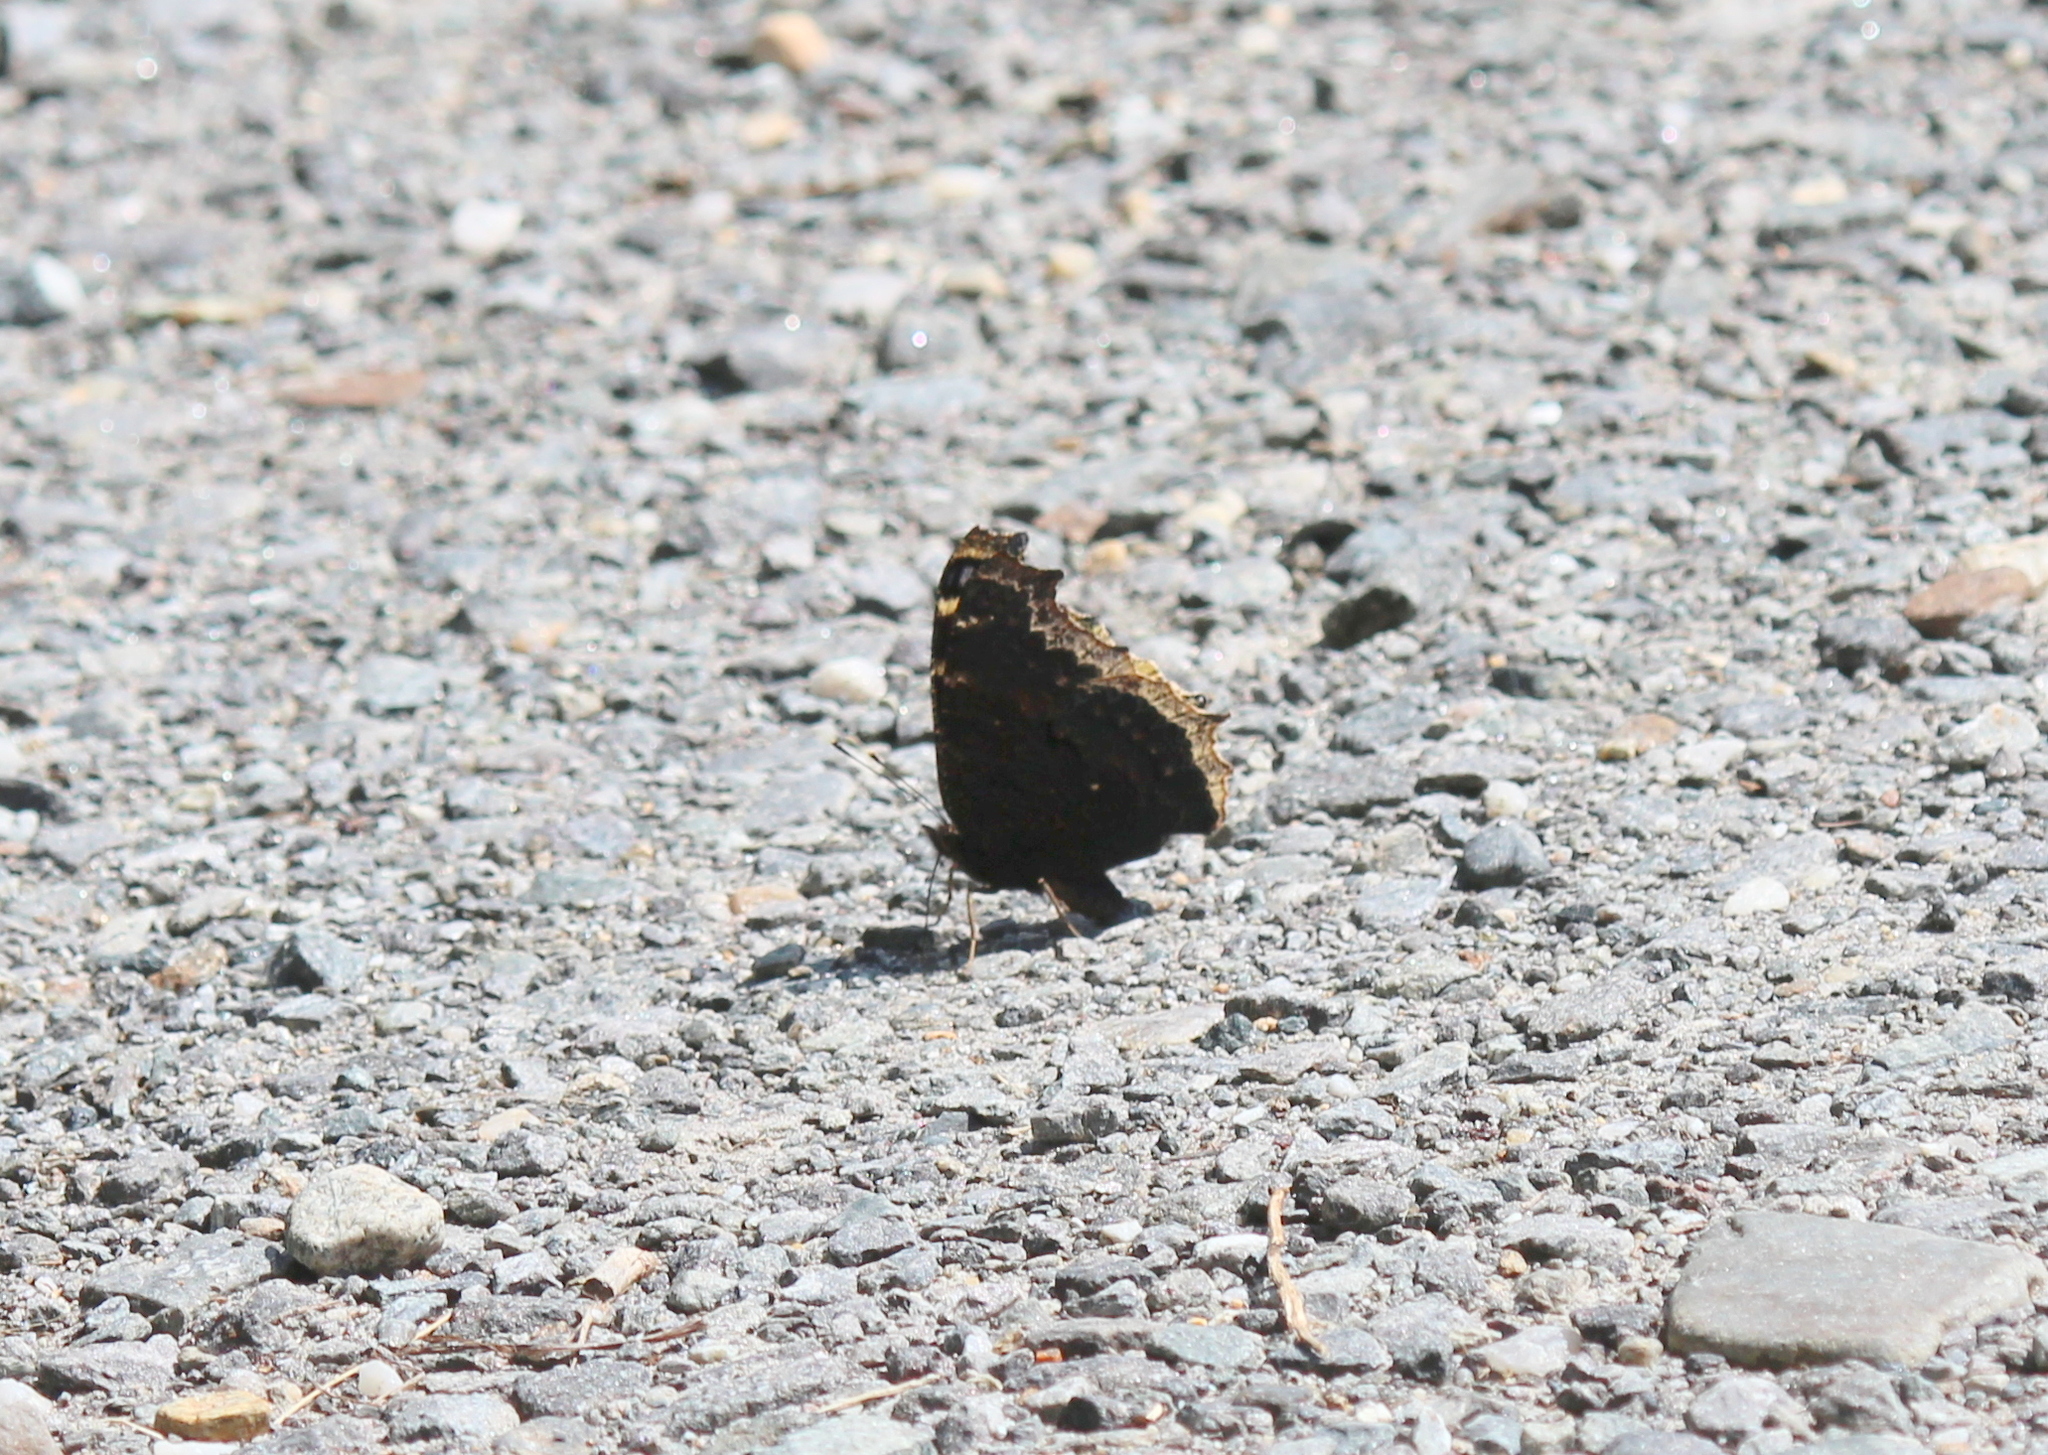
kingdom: Animalia
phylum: Arthropoda
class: Insecta
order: Lepidoptera
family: Nymphalidae
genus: Nymphalis
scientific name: Nymphalis antiopa
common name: Camberwell beauty
